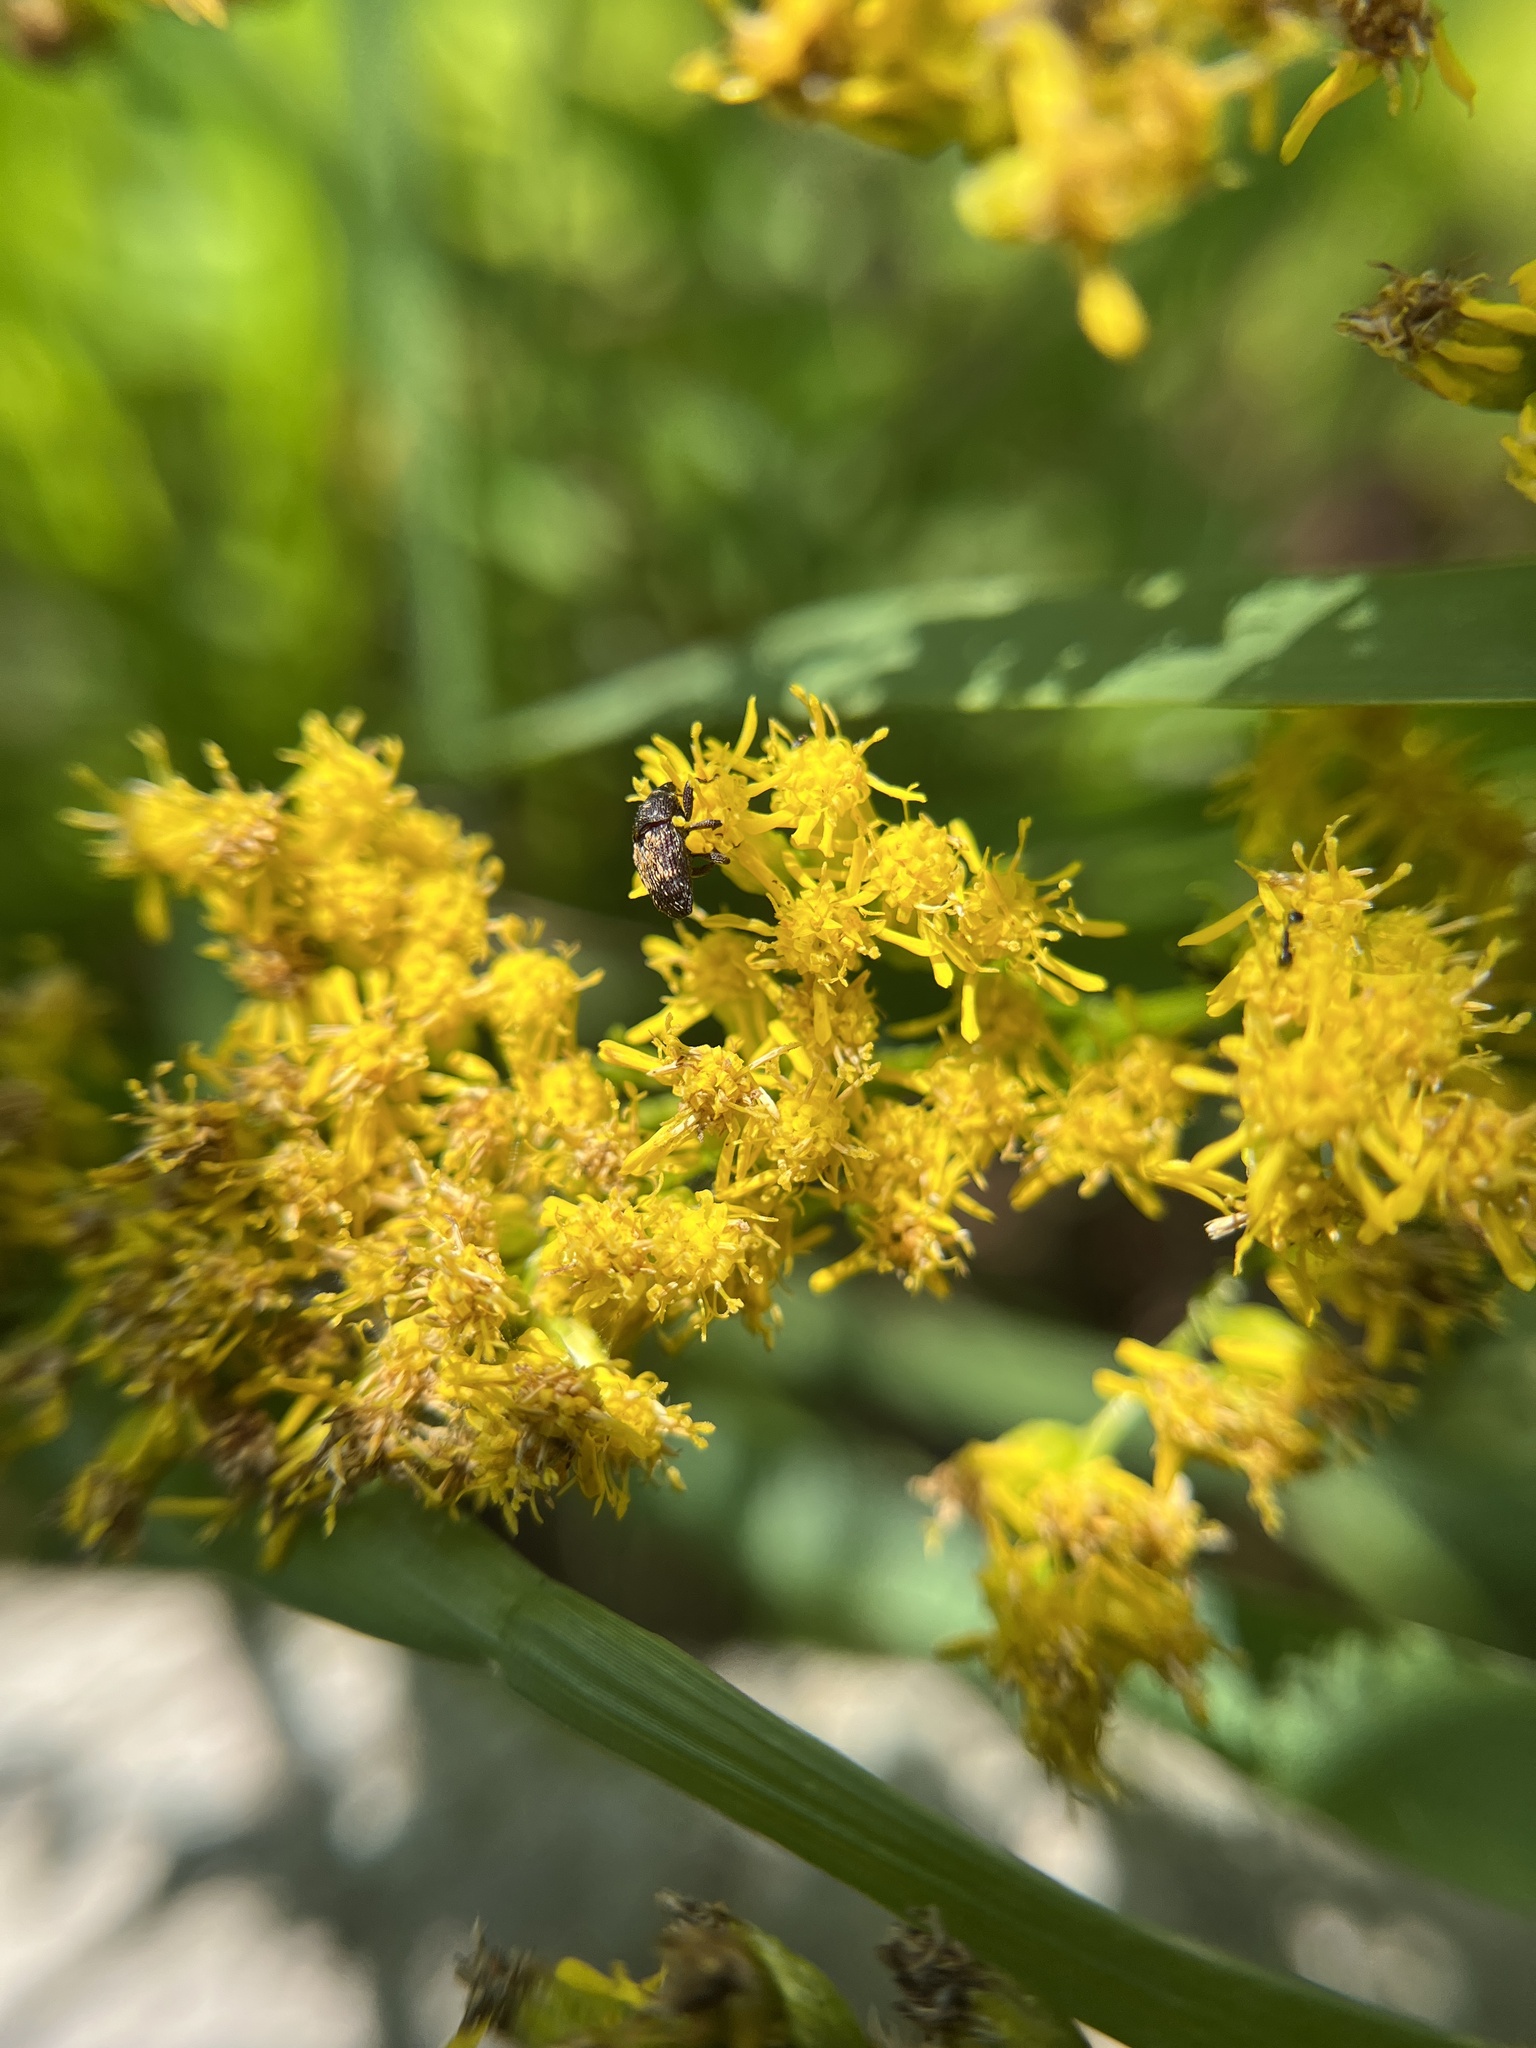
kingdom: Animalia
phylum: Arthropoda
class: Insecta
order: Coleoptera
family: Curculionidae
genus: Glyptobaris
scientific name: Glyptobaris lecontei
